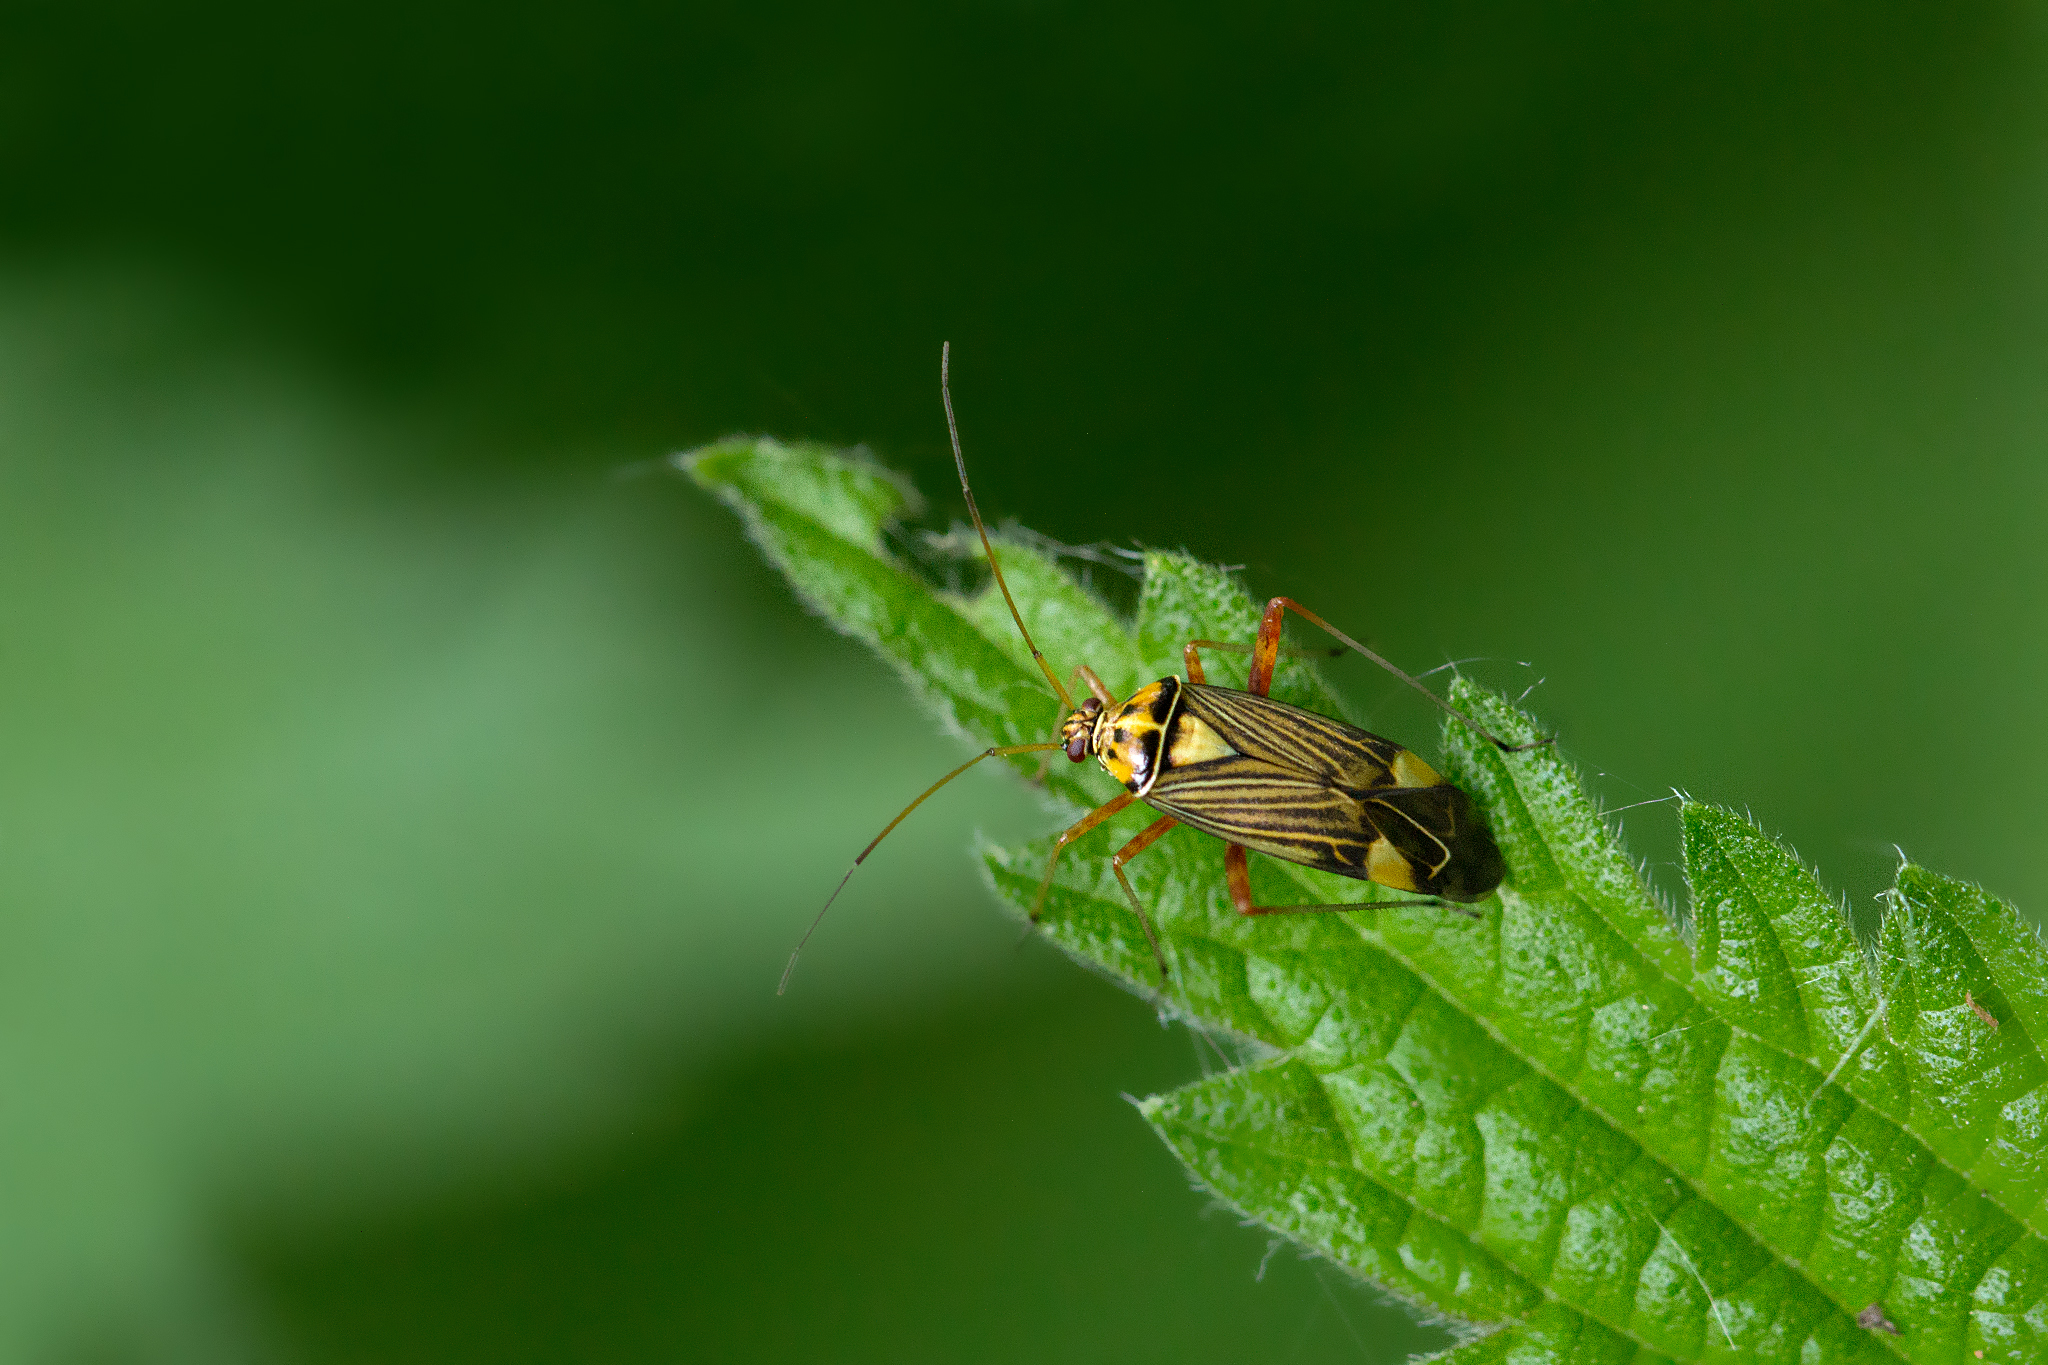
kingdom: Animalia
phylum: Arthropoda
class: Insecta
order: Hemiptera
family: Miridae
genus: Rhabdomiris
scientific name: Rhabdomiris striatellus
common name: Plant bug
